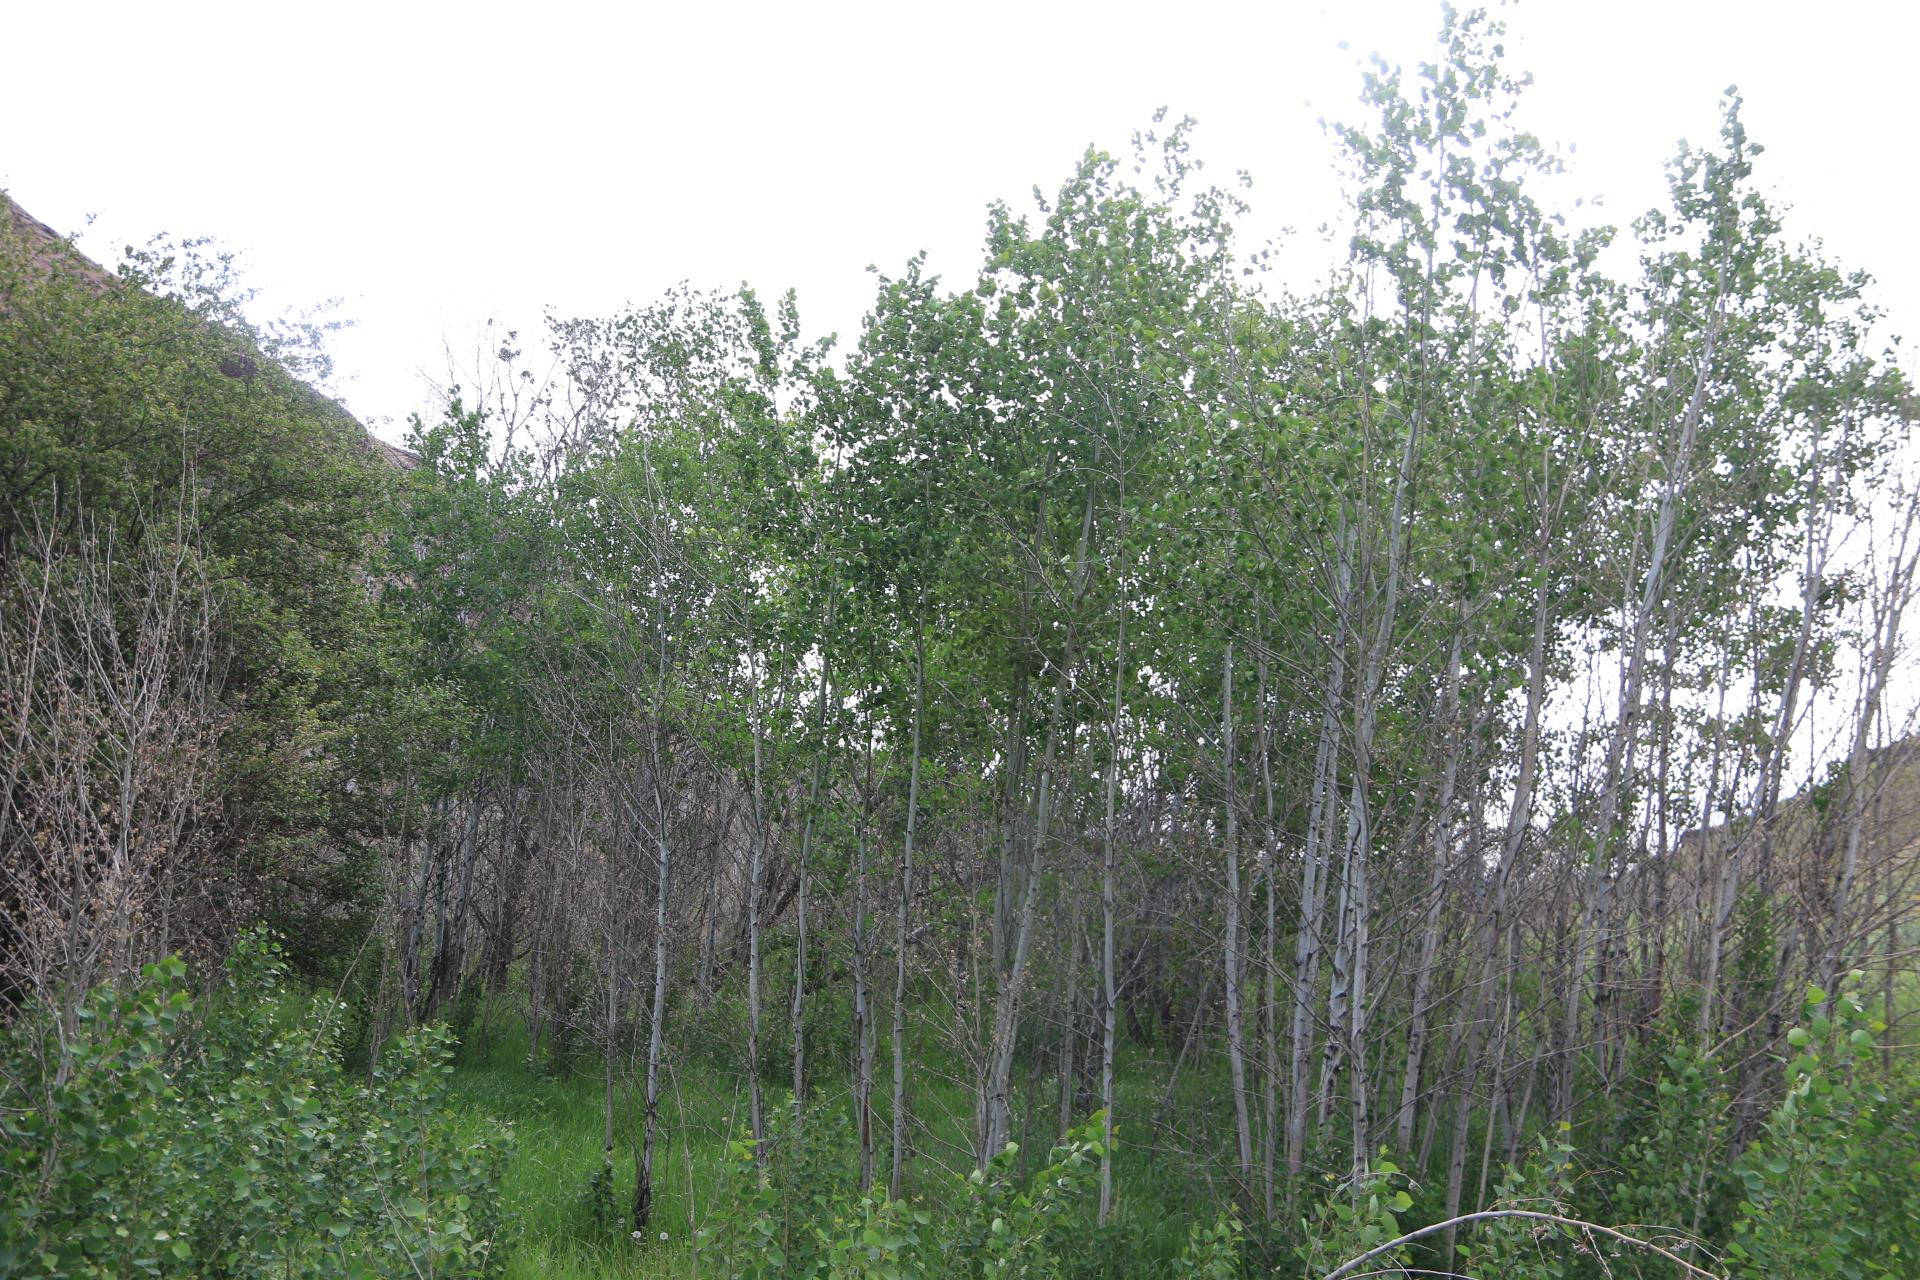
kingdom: Plantae
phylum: Tracheophyta
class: Magnoliopsida
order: Malpighiales
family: Salicaceae
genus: Populus
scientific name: Populus tremuloides
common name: Quaking aspen
